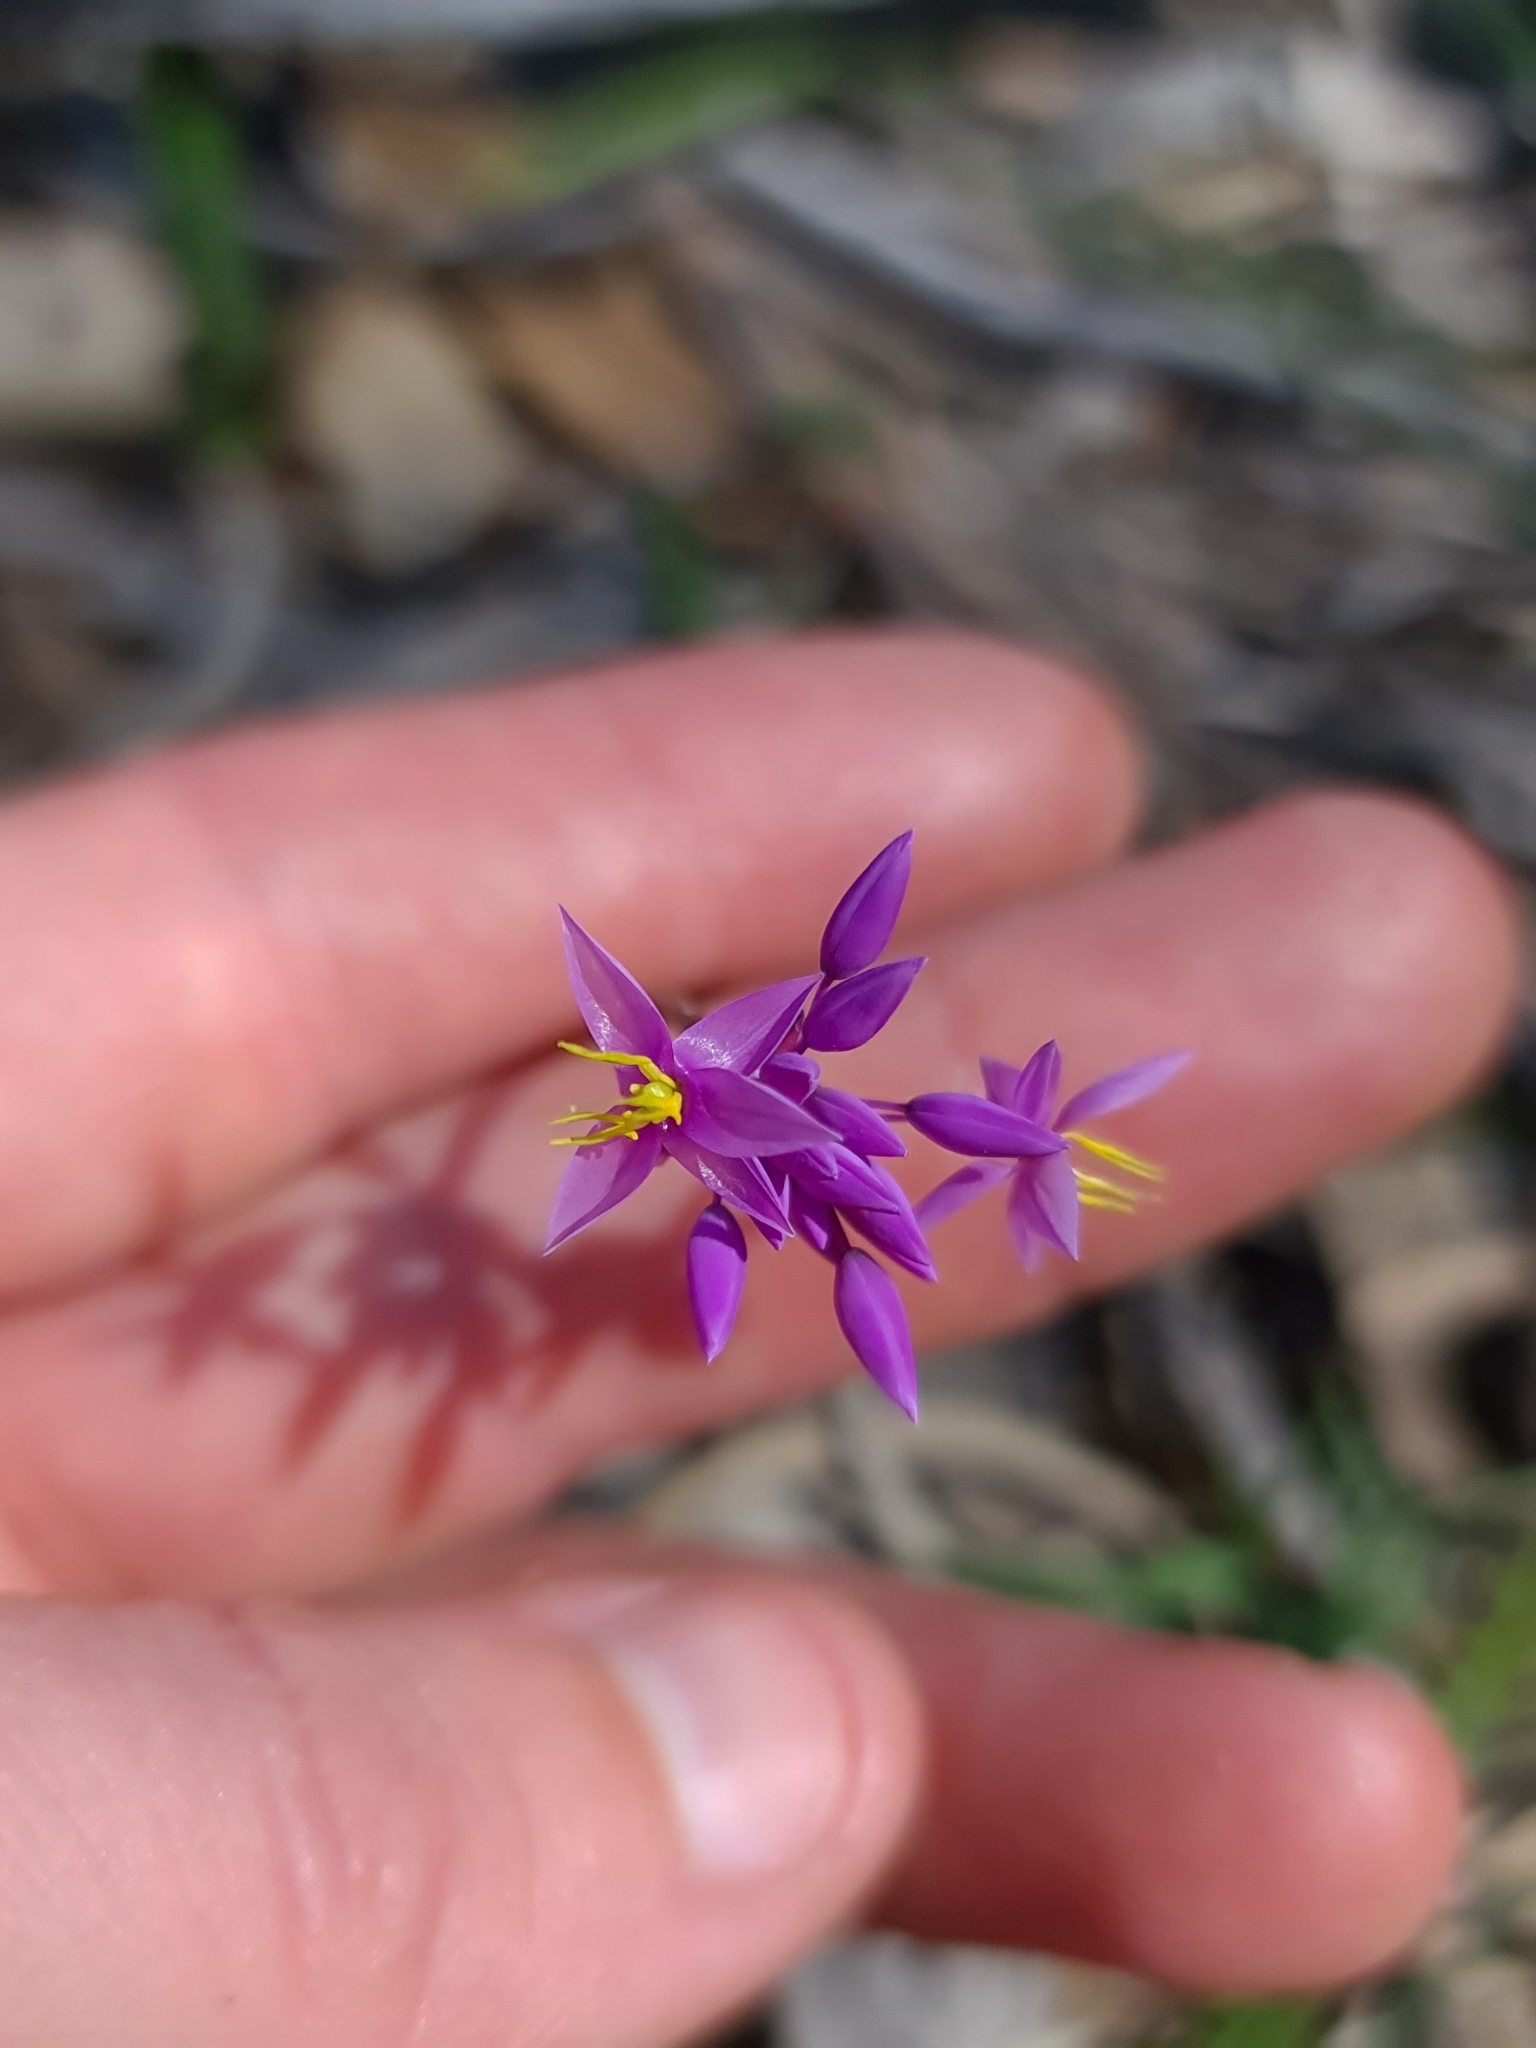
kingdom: Plantae
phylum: Tracheophyta
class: Liliopsida
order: Asparagales
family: Asparagaceae
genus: Sowerbaea
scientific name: Sowerbaea laxiflora
